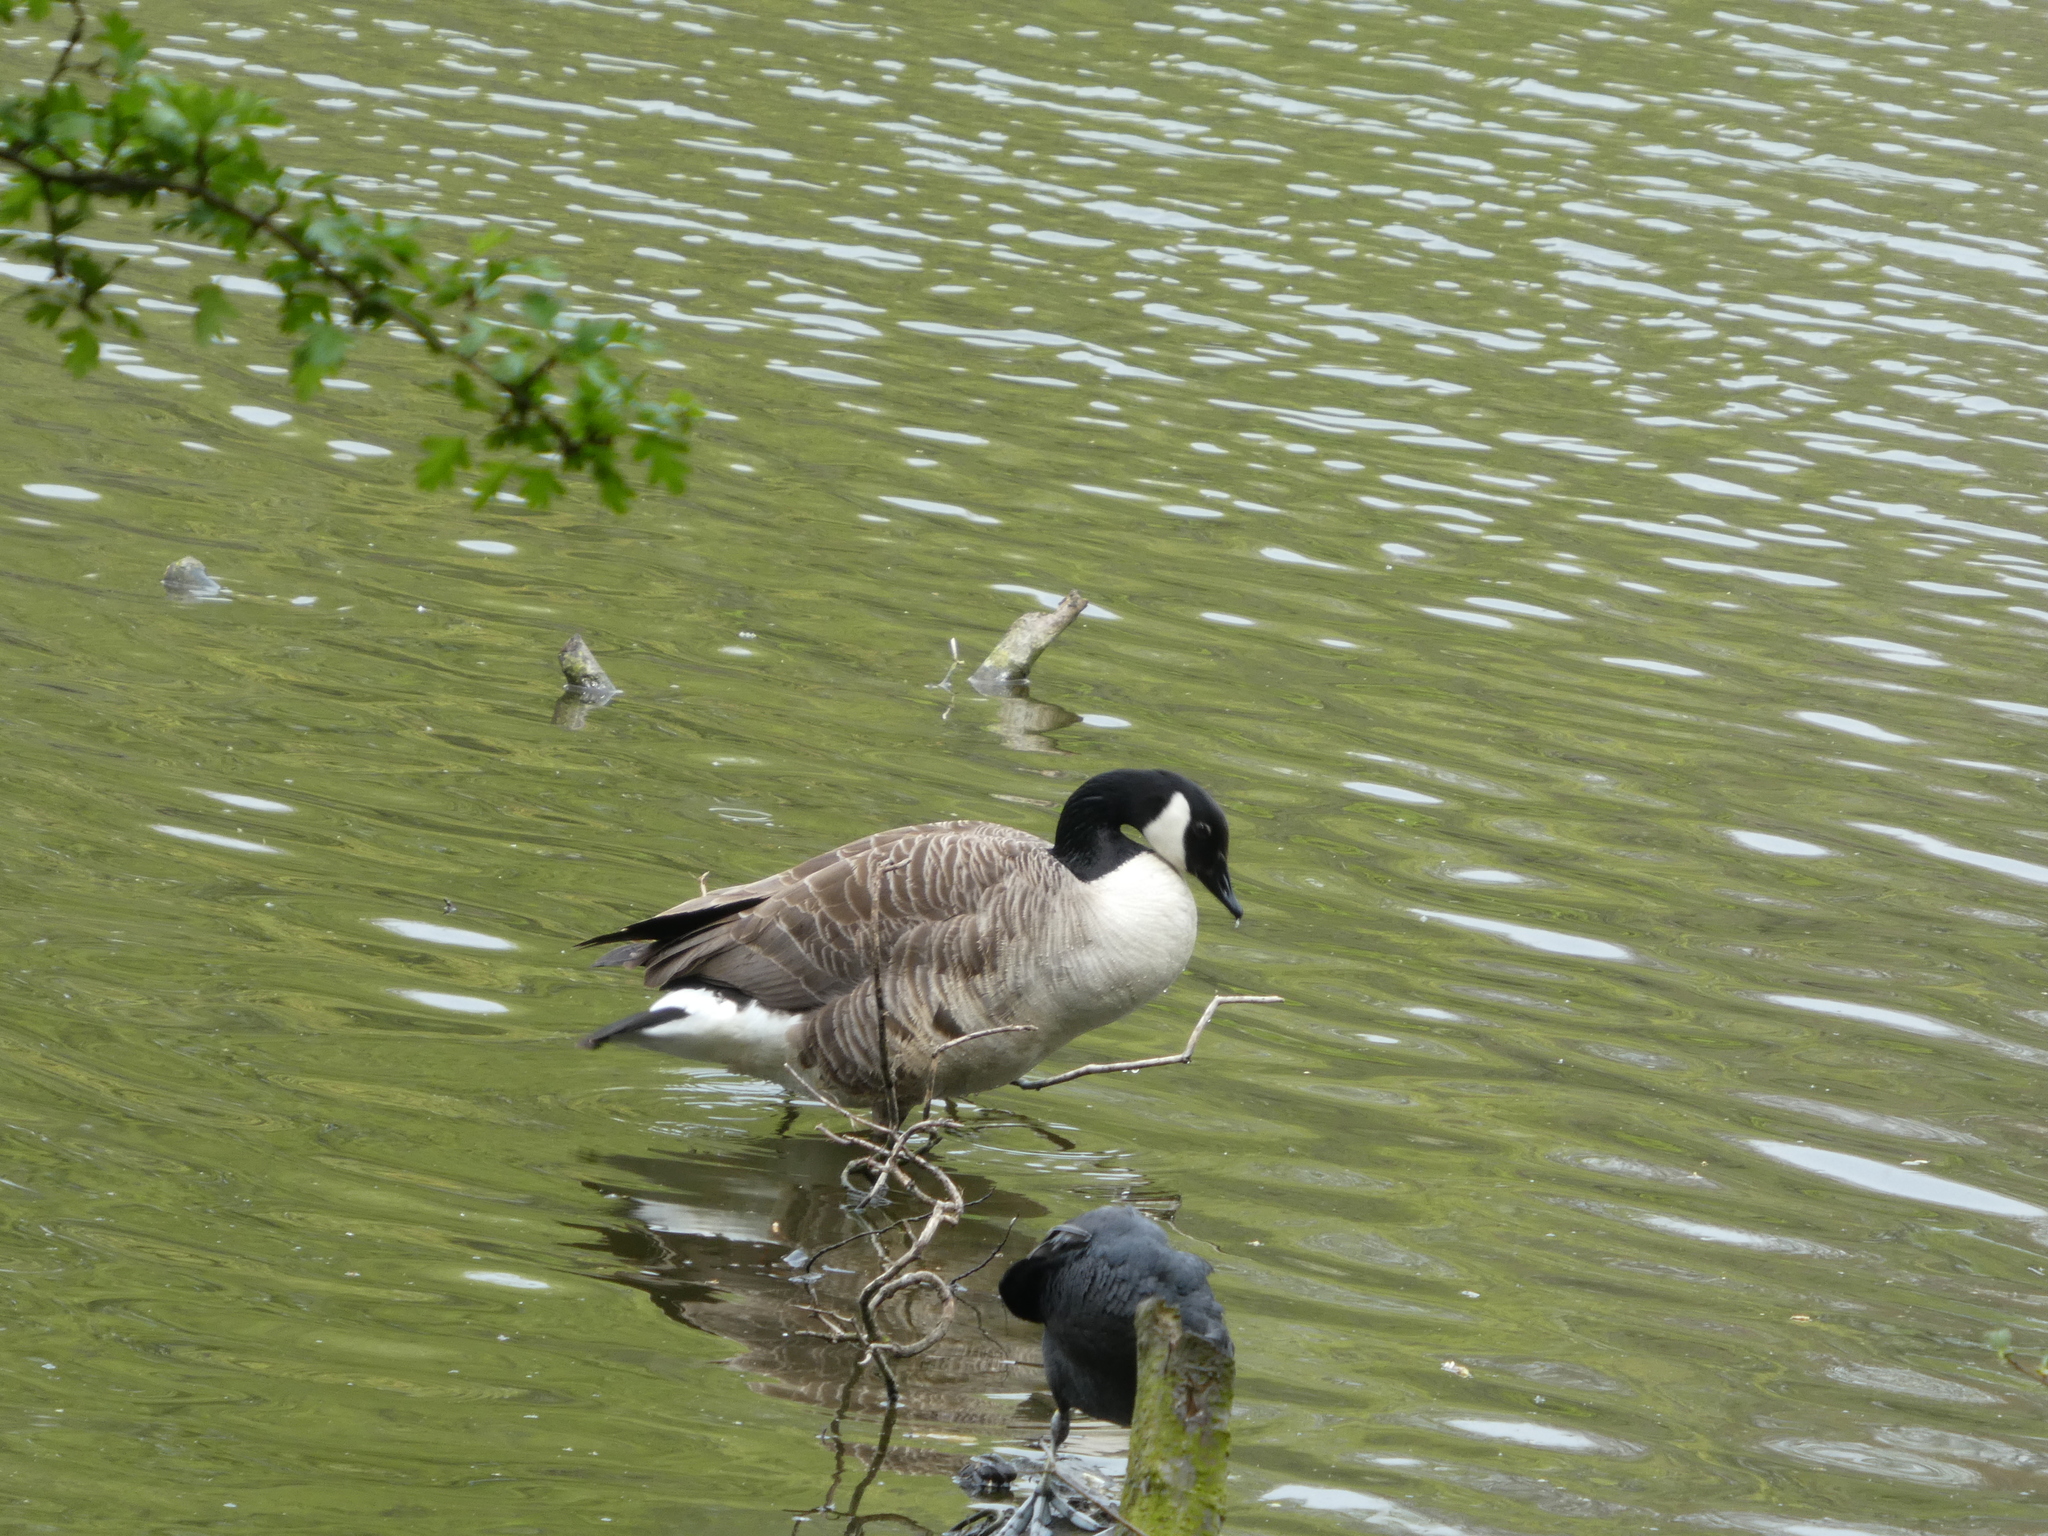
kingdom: Animalia
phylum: Chordata
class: Aves
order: Anseriformes
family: Anatidae
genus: Branta
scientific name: Branta canadensis
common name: Canada goose
